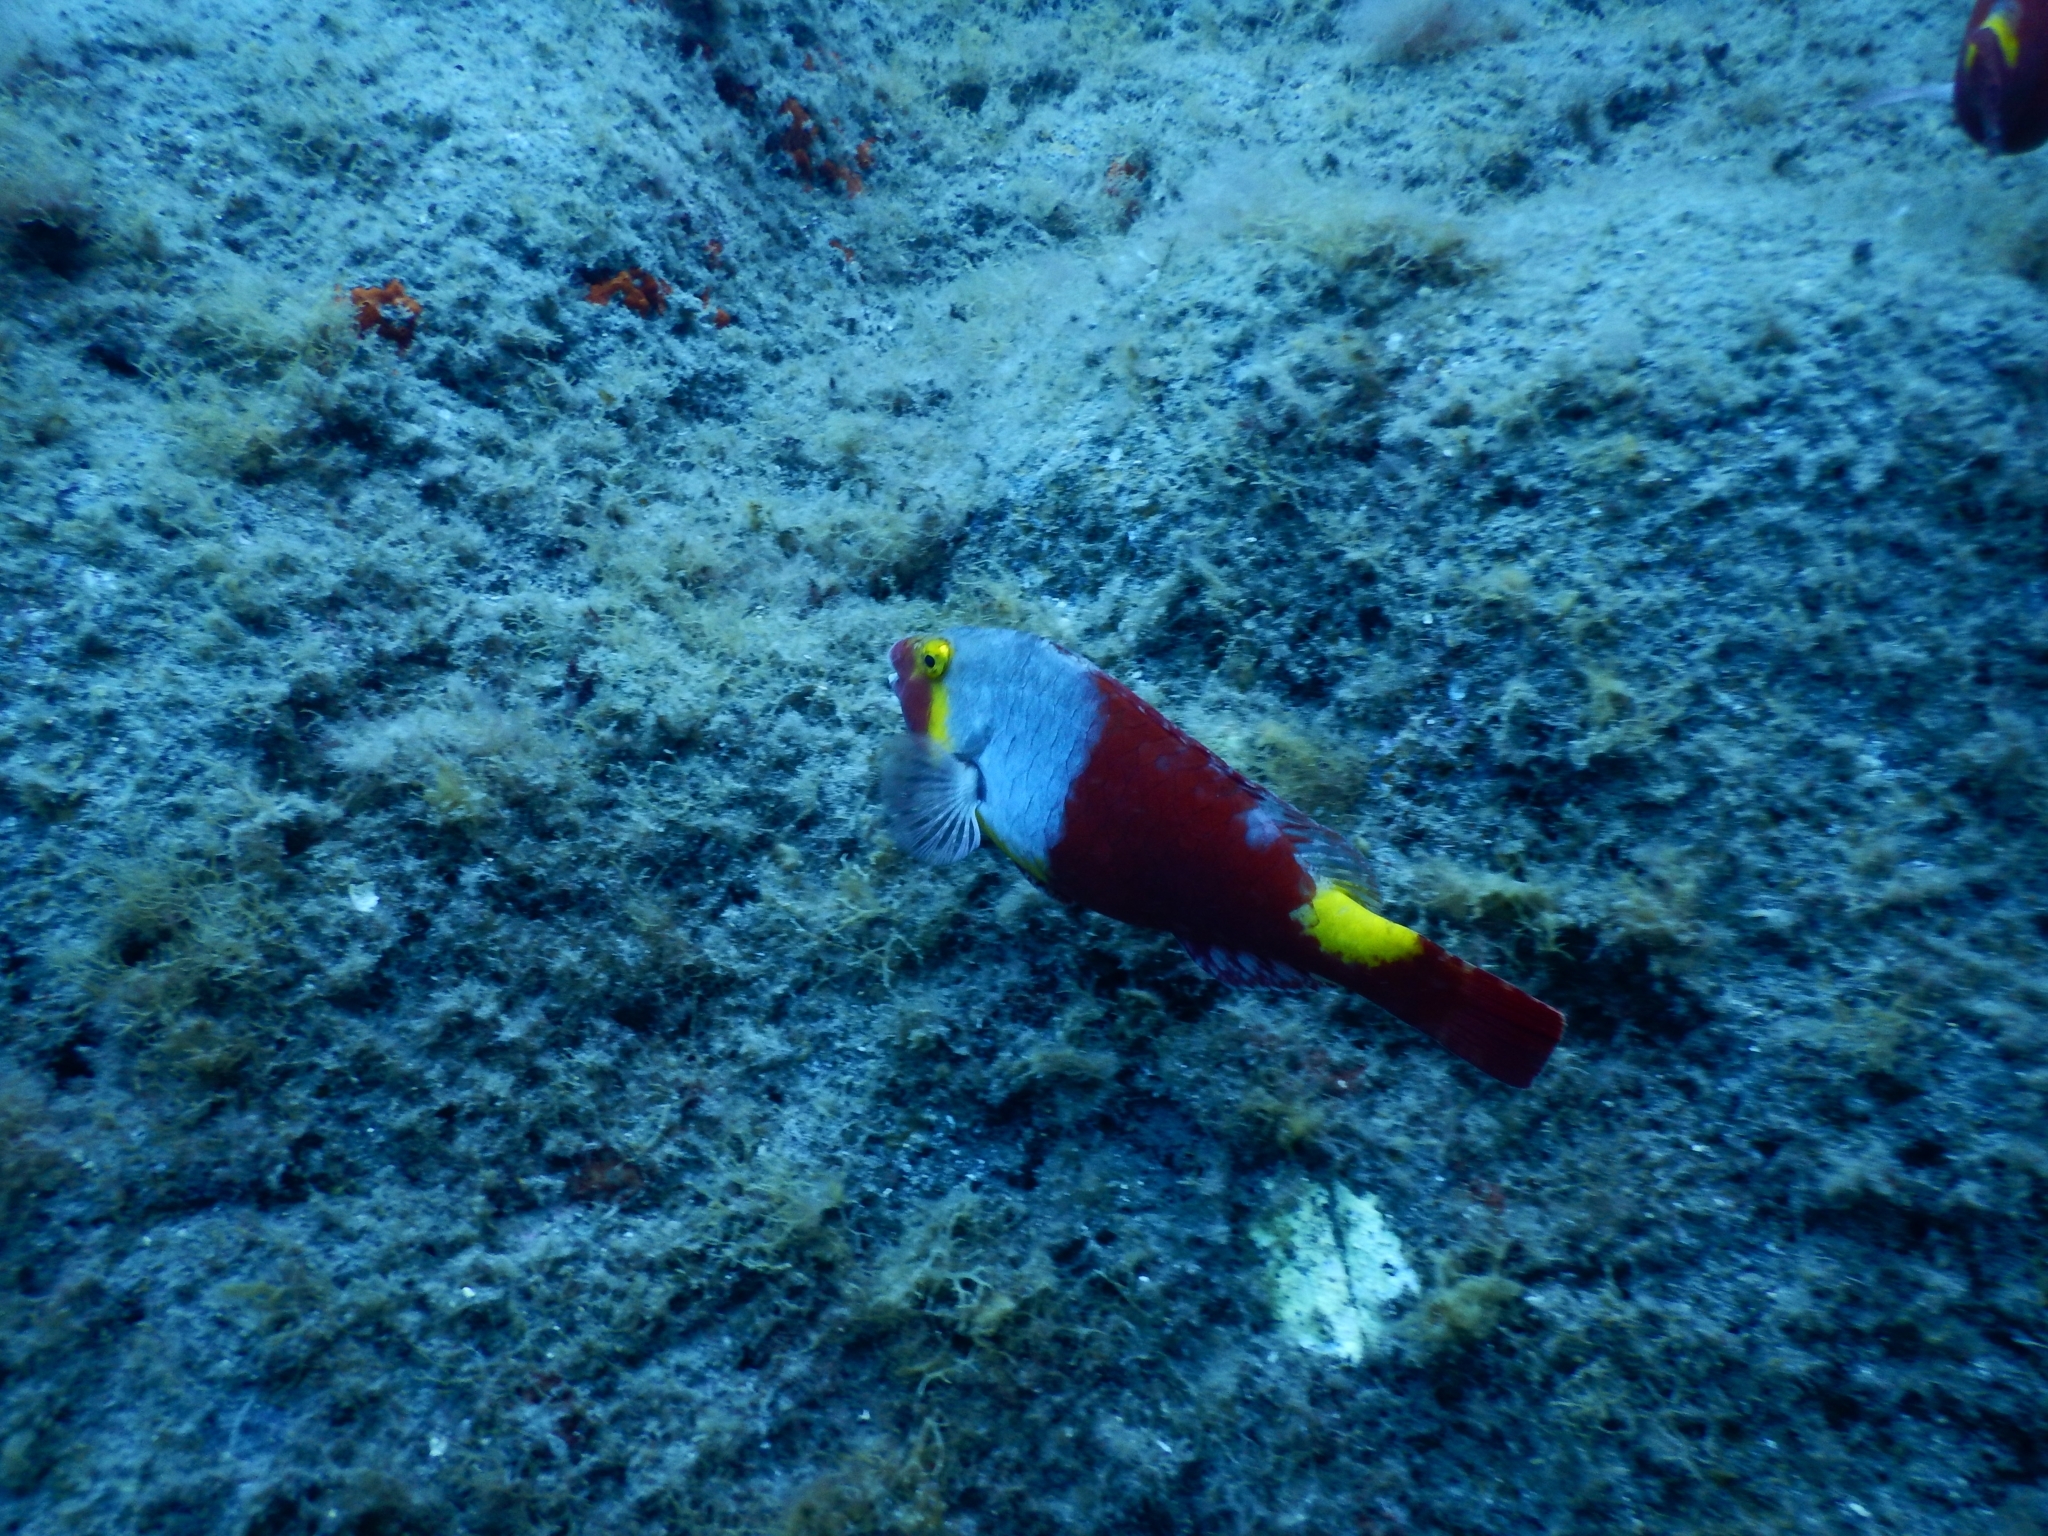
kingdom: Animalia
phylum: Chordata
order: Perciformes
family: Scaridae
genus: Sparisoma
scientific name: Sparisoma cretense
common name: Parrotfish
